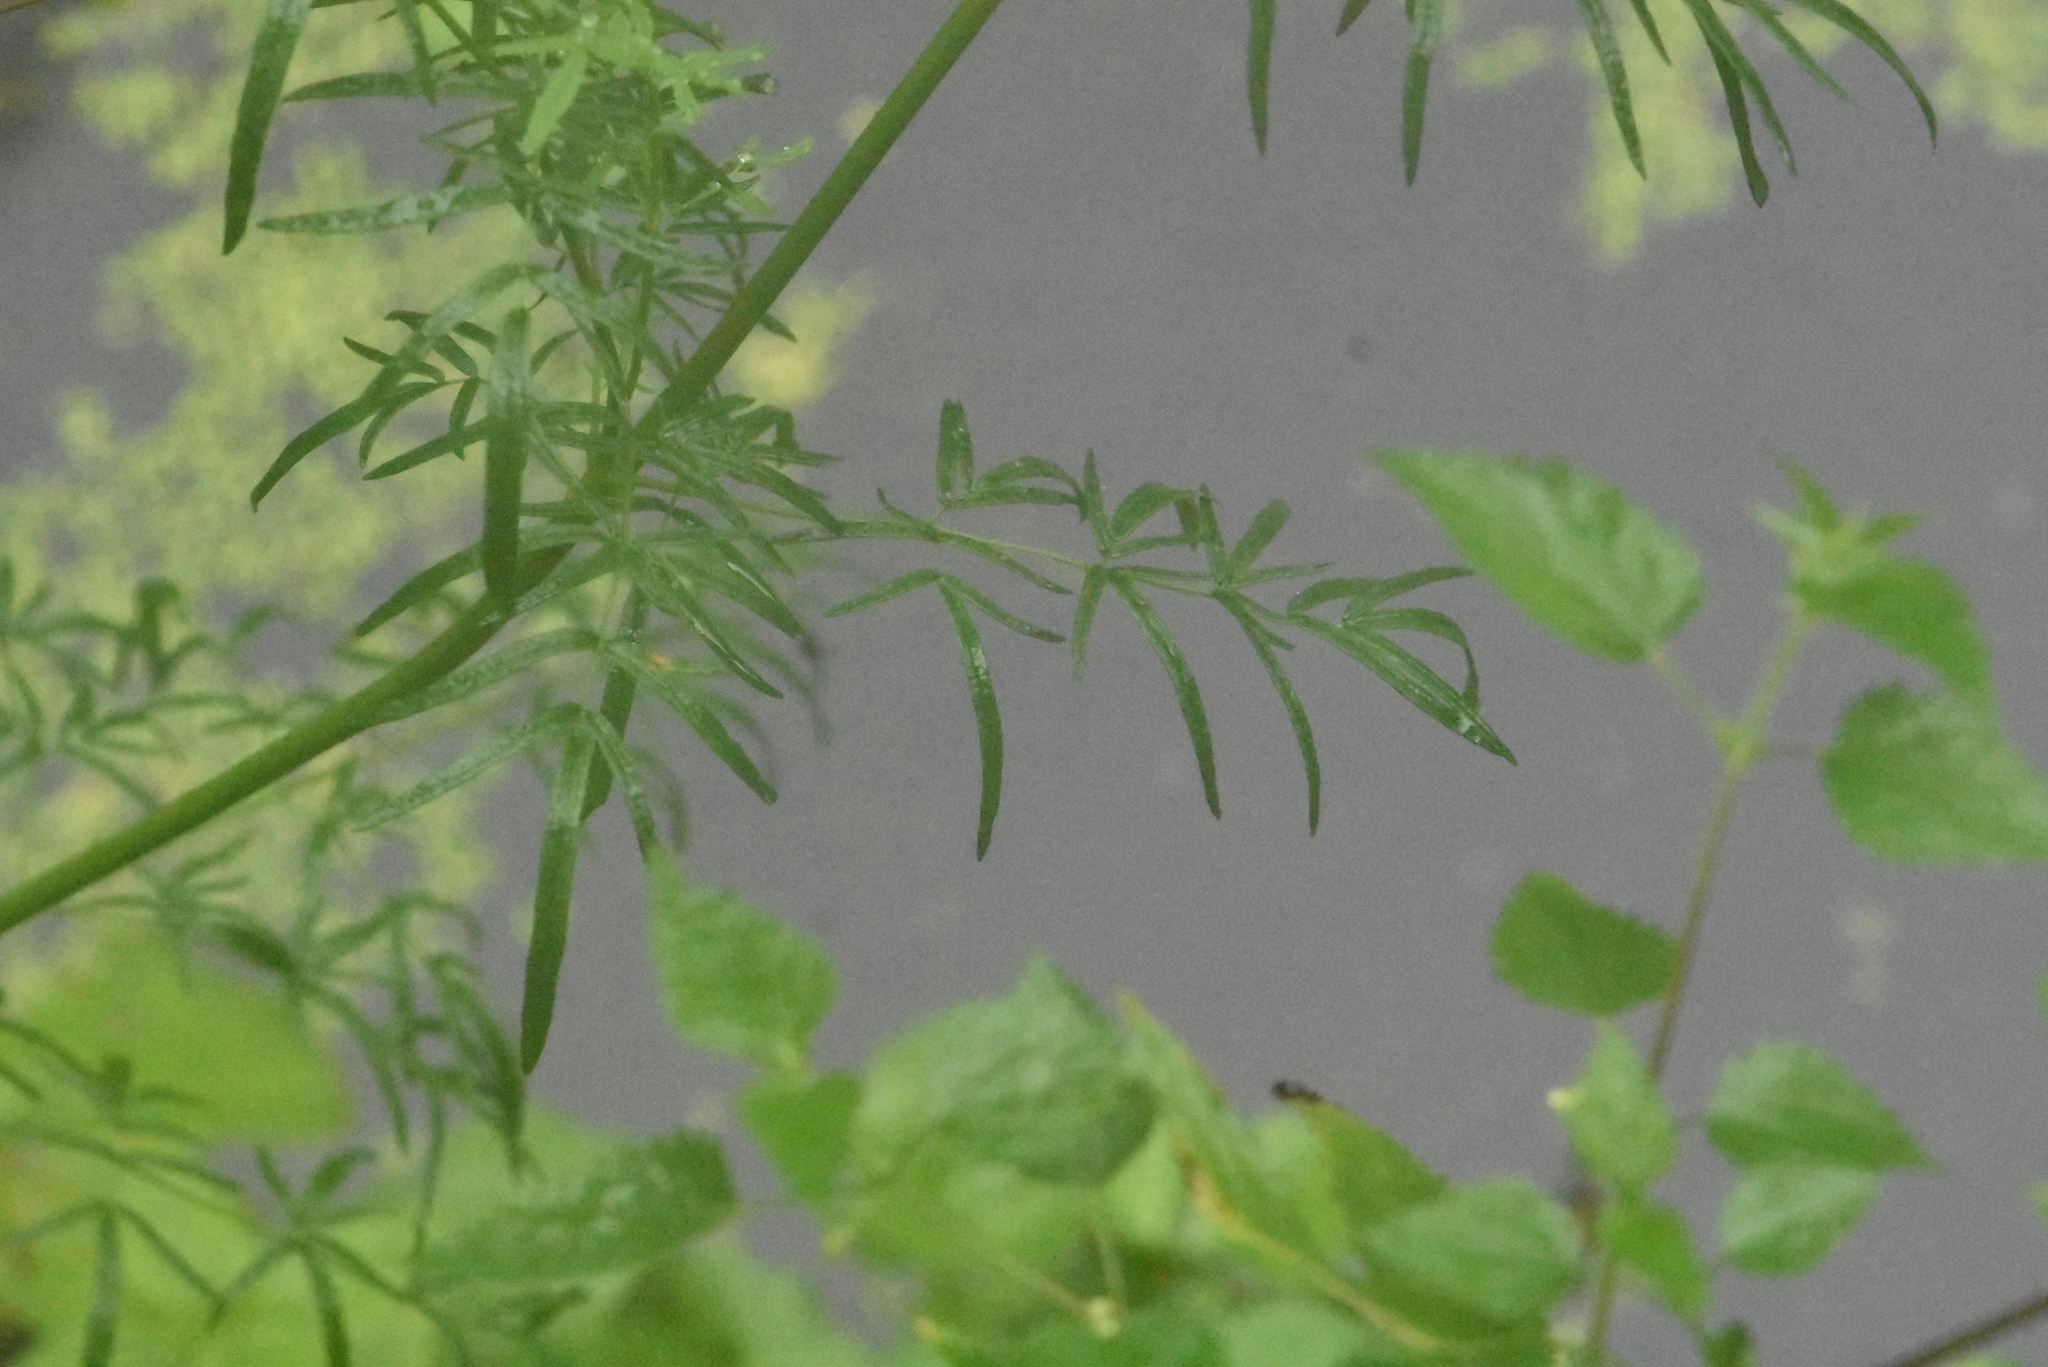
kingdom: Plantae
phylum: Tracheophyta
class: Magnoliopsida
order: Ranunculales
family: Ranunculaceae
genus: Thalictrum
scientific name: Thalictrum lucidum
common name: Shining meadow-rue
